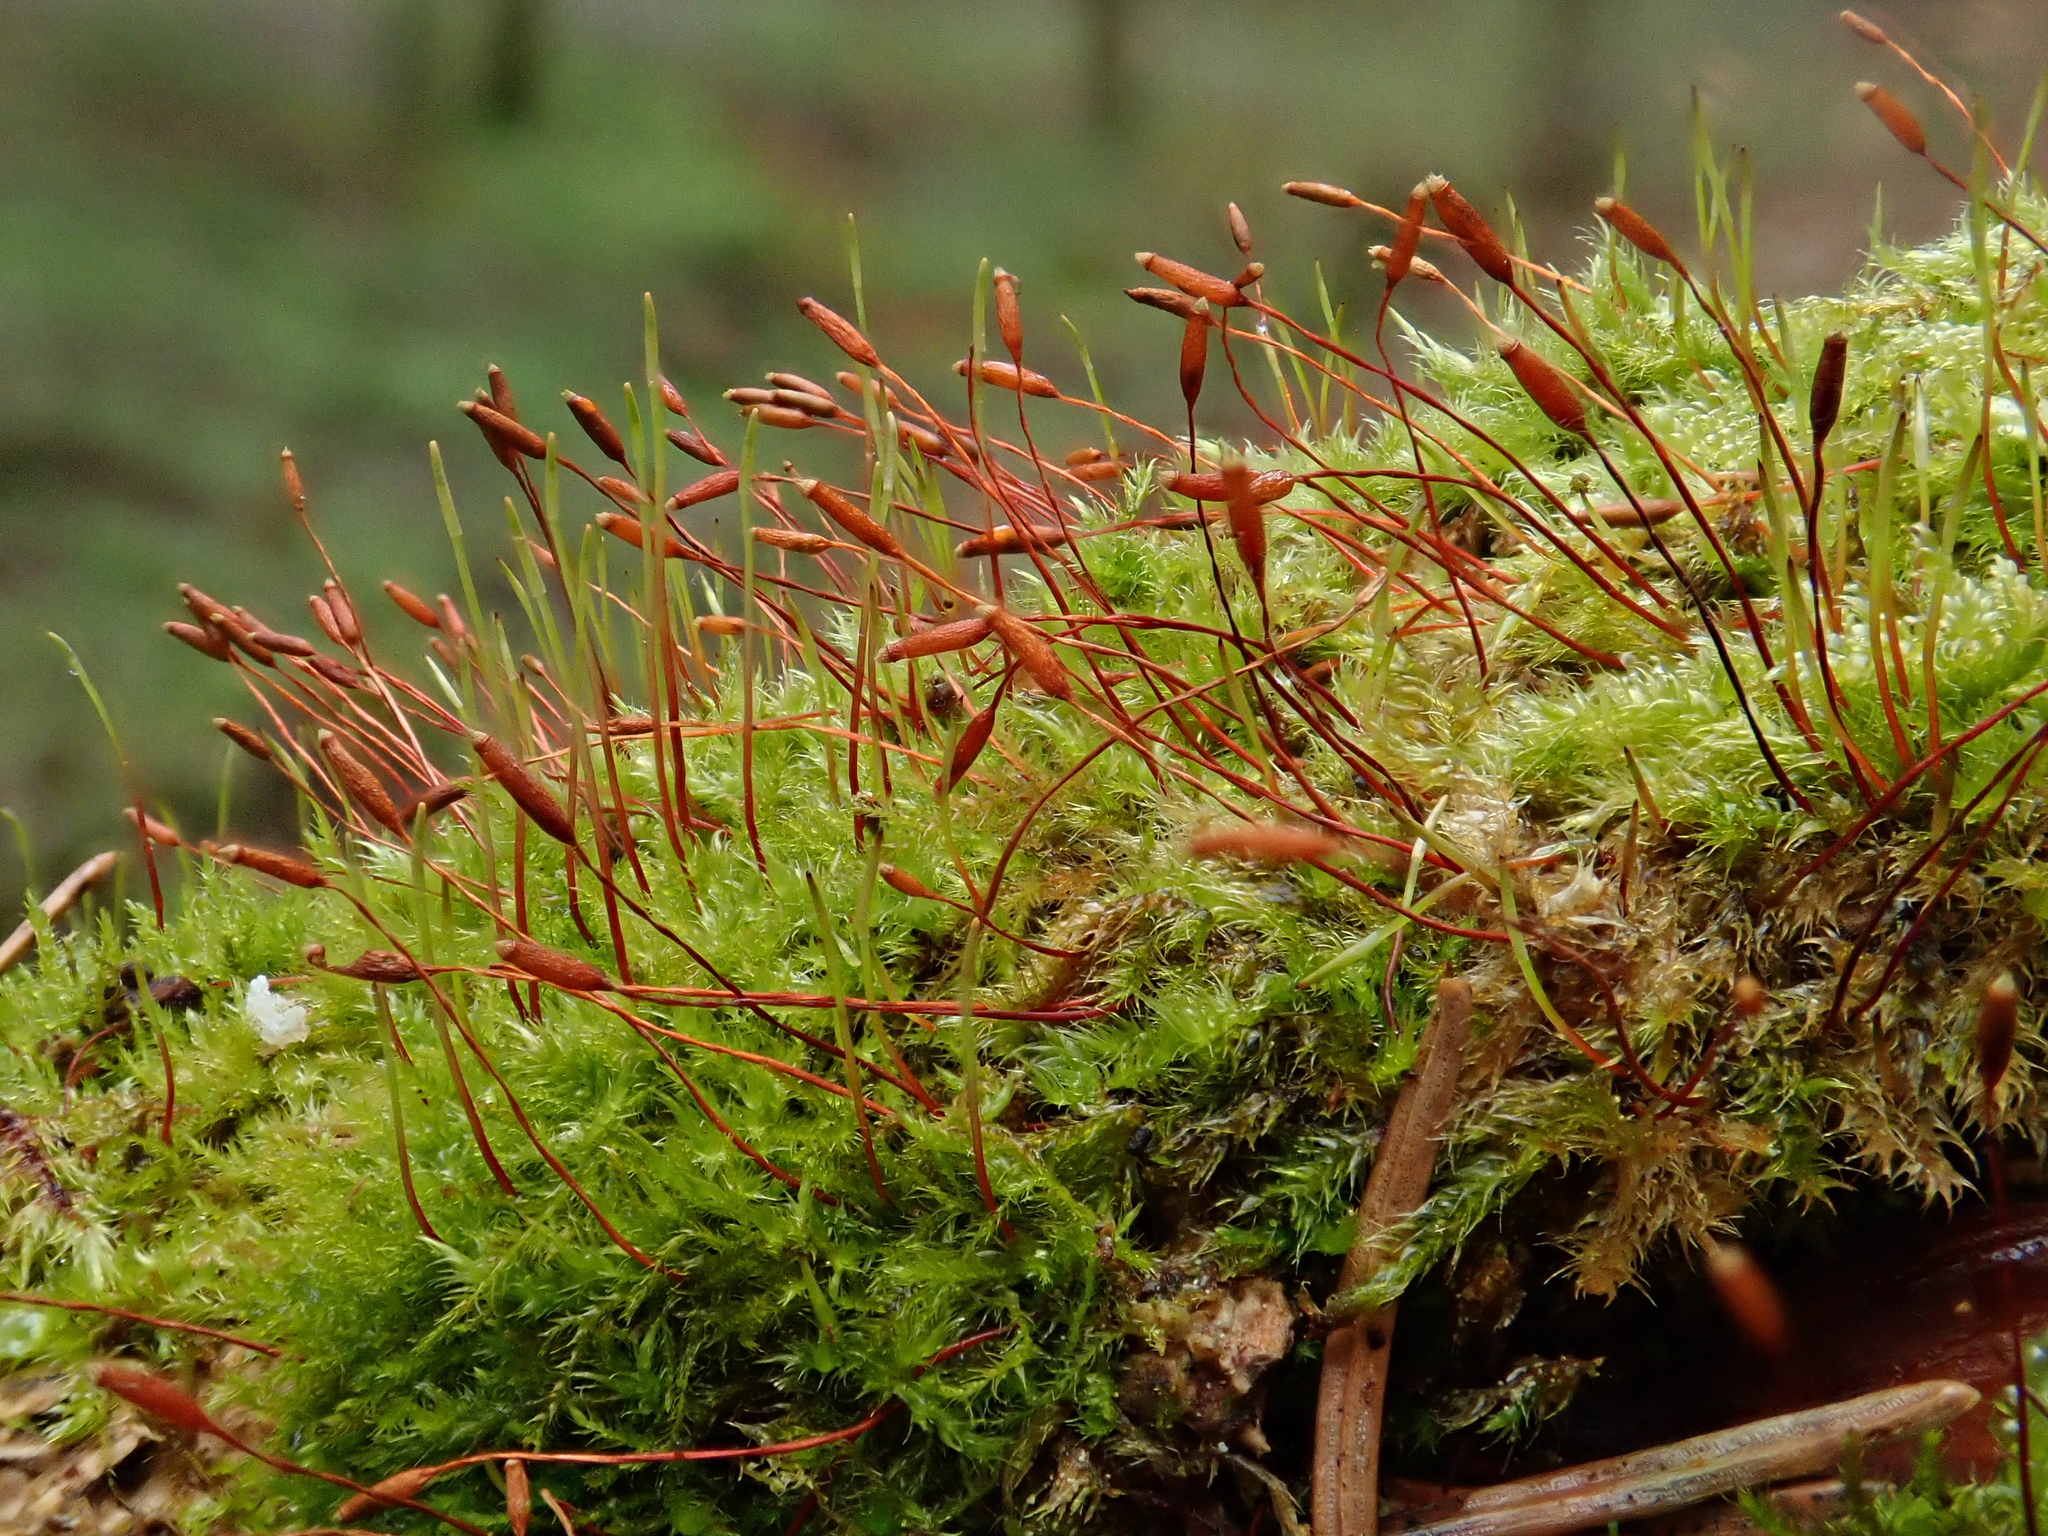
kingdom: Plantae
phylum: Bryophyta
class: Bryopsida
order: Hypnales
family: Pylaisiaceae
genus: Pylaisia
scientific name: Pylaisia polyantha
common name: Many-flowered leskea
